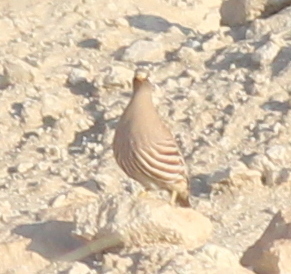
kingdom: Animalia
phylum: Chordata
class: Aves
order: Galliformes
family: Phasianidae
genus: Ammoperdix
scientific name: Ammoperdix heyi
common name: Sand partridge
